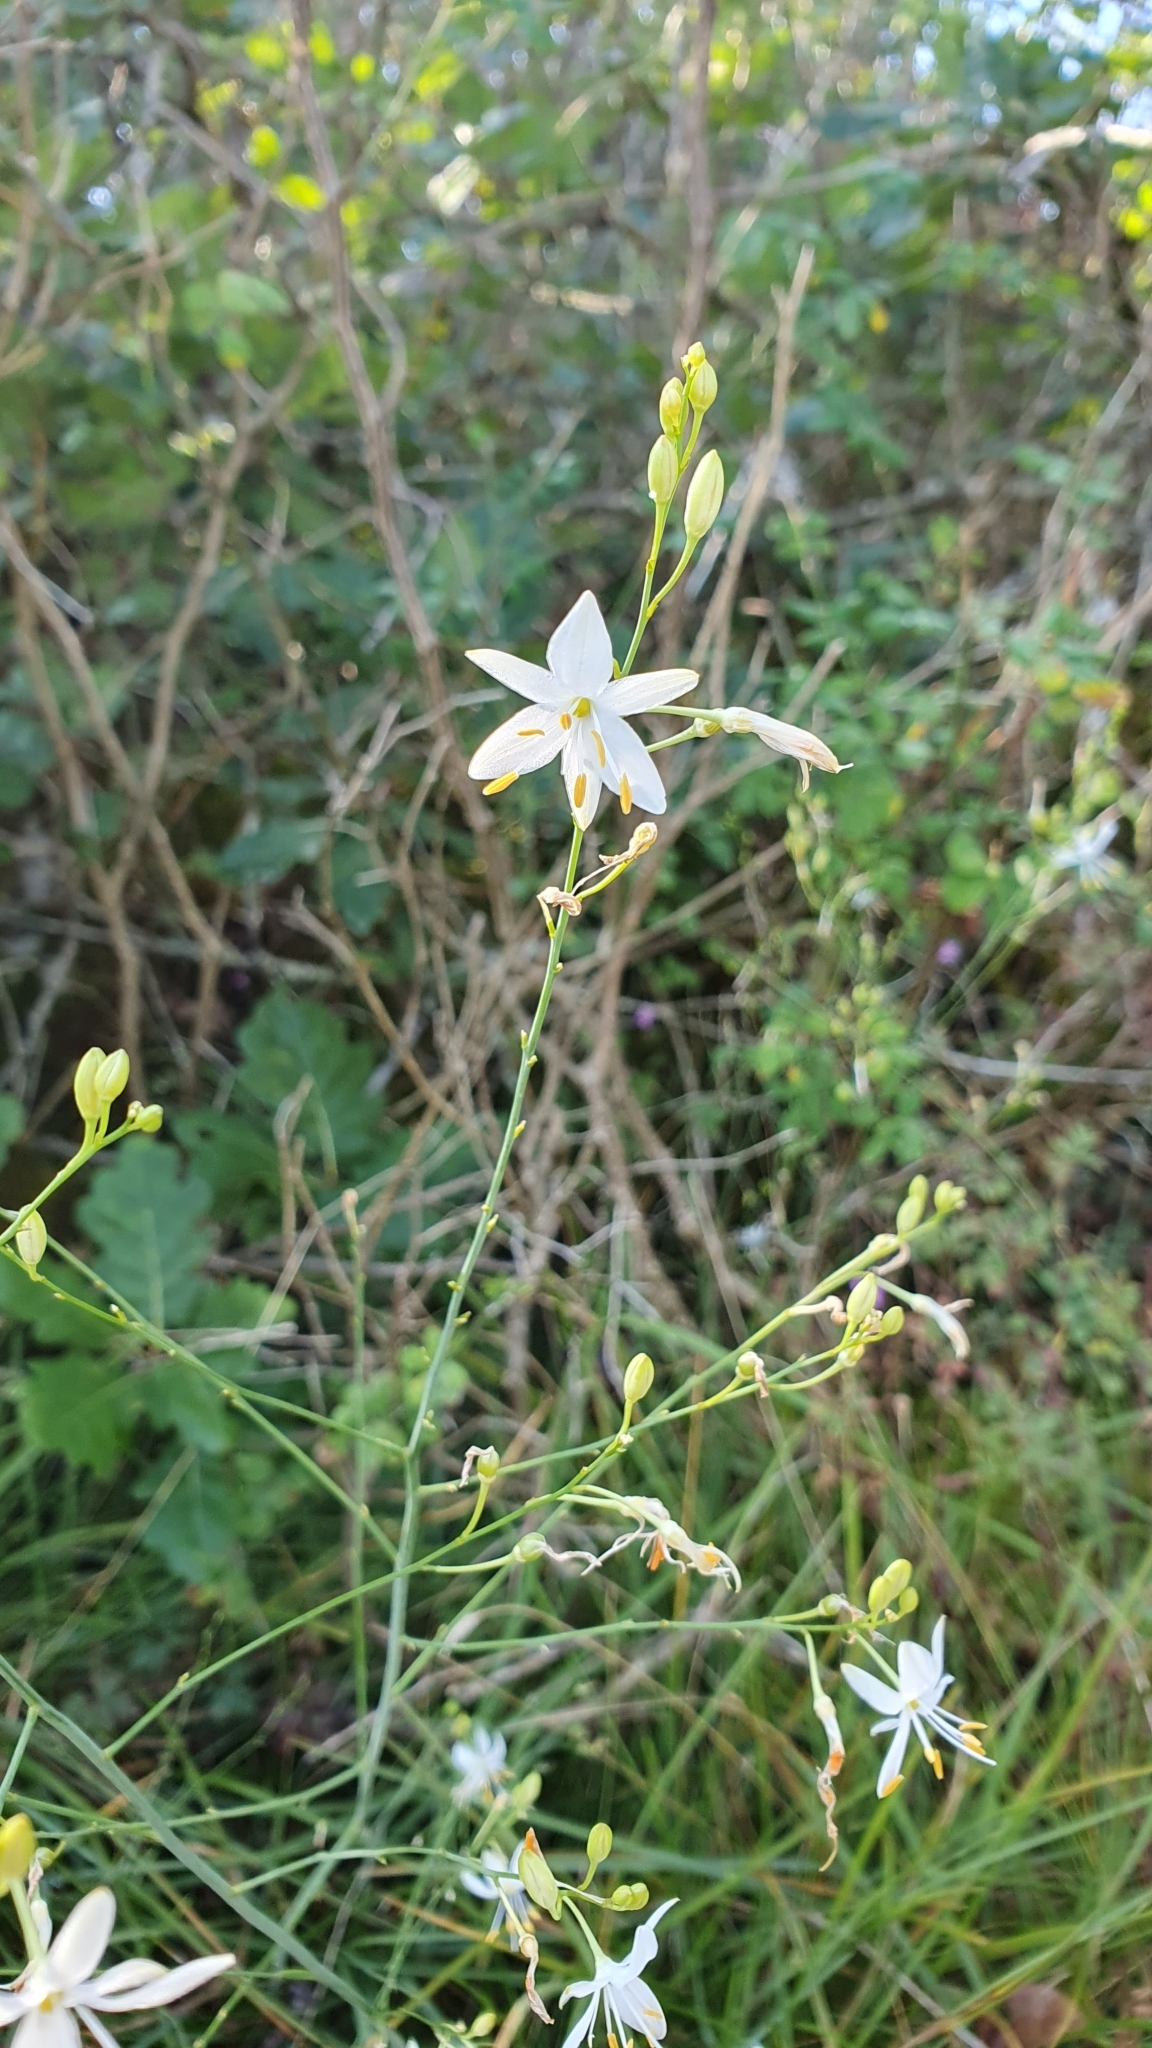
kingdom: Plantae
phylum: Tracheophyta
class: Liliopsida
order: Asparagales
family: Asparagaceae
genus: Anthericum
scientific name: Anthericum ramosum
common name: Branched st. bernard's-lily
